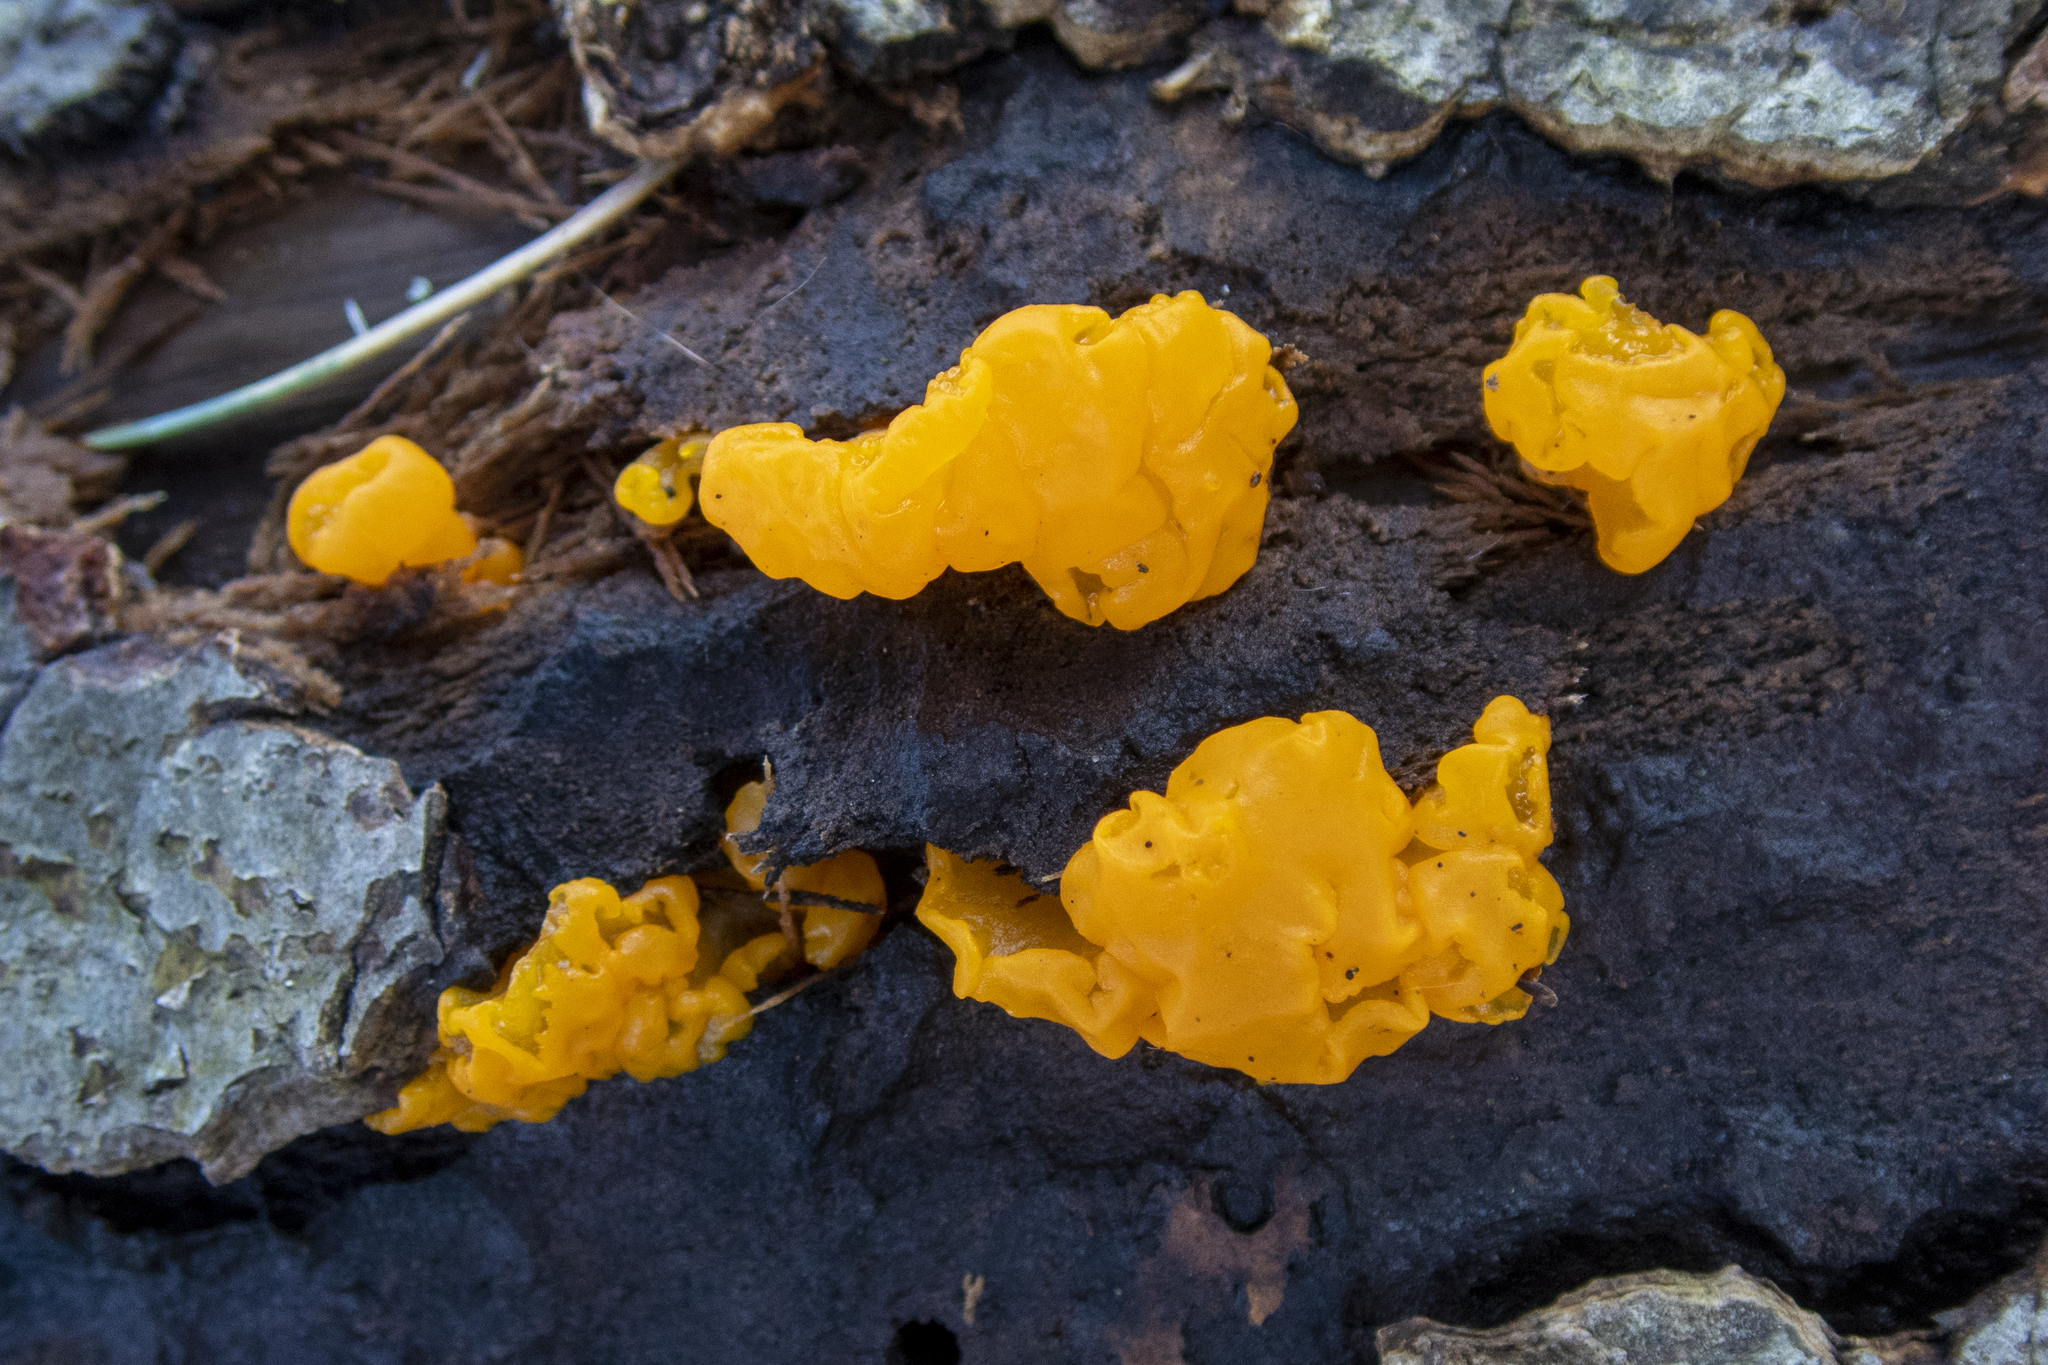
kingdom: Fungi
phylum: Basidiomycota
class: Dacrymycetes
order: Dacrymycetales
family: Dacrymycetaceae
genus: Dacrymyces
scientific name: Dacrymyces chrysospermus
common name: Orange jelly spot
